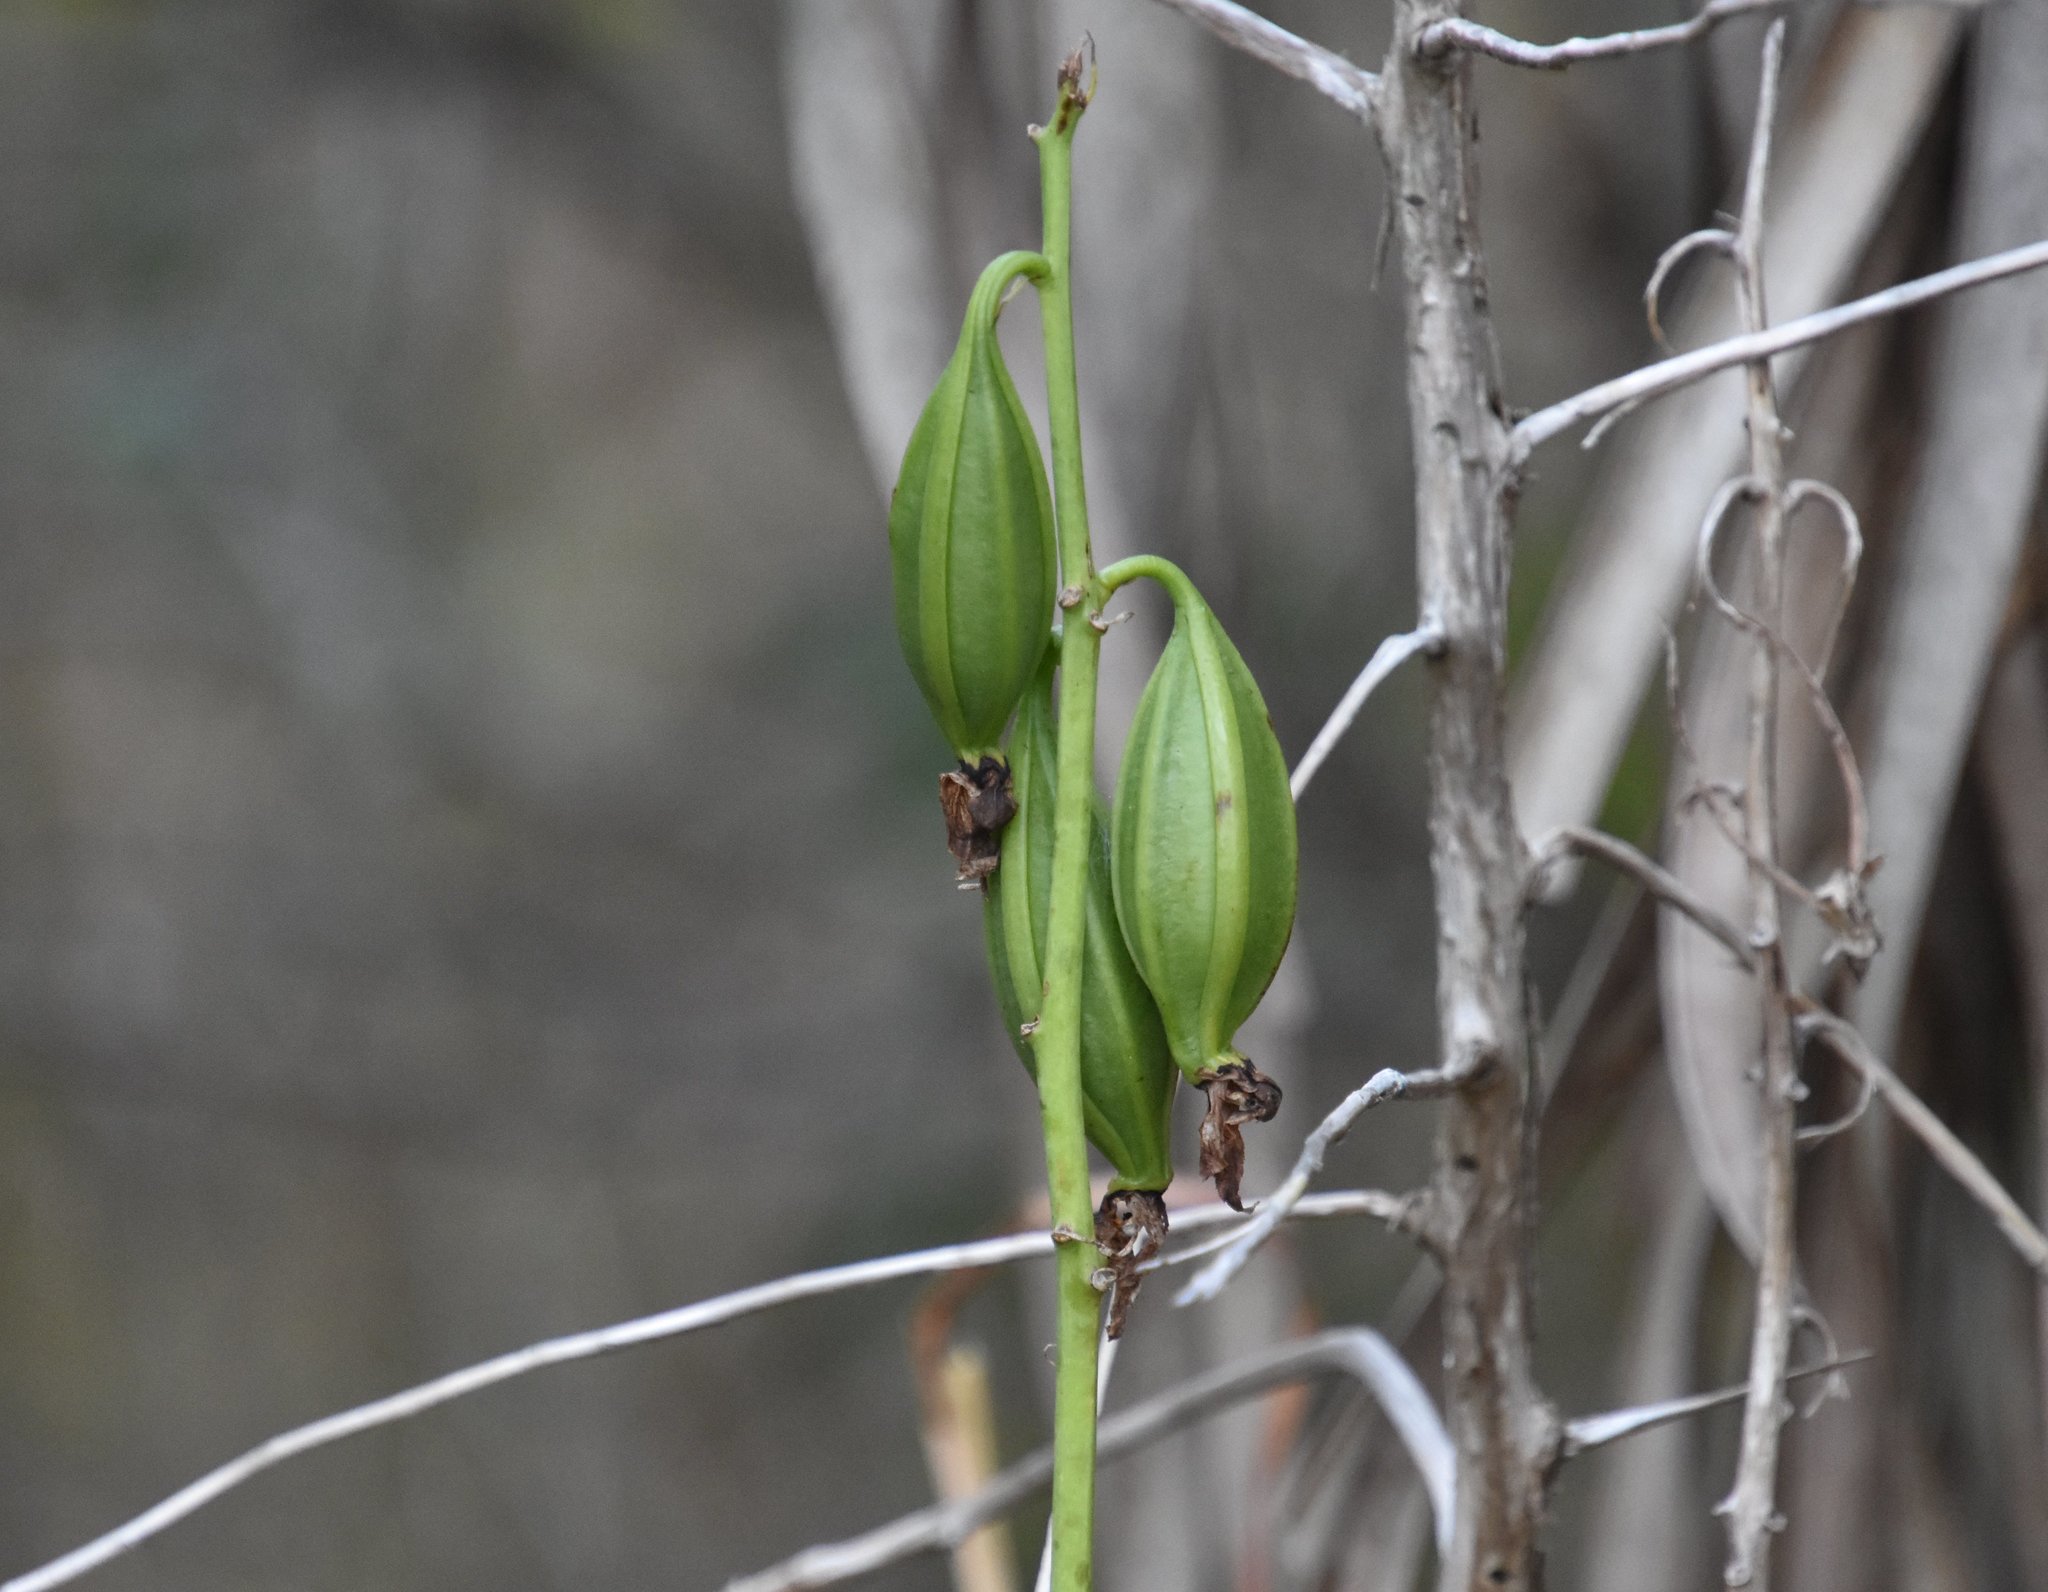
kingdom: Plantae
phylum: Tracheophyta
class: Liliopsida
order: Asparagales
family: Orchidaceae
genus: Eulophia
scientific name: Eulophia alta
